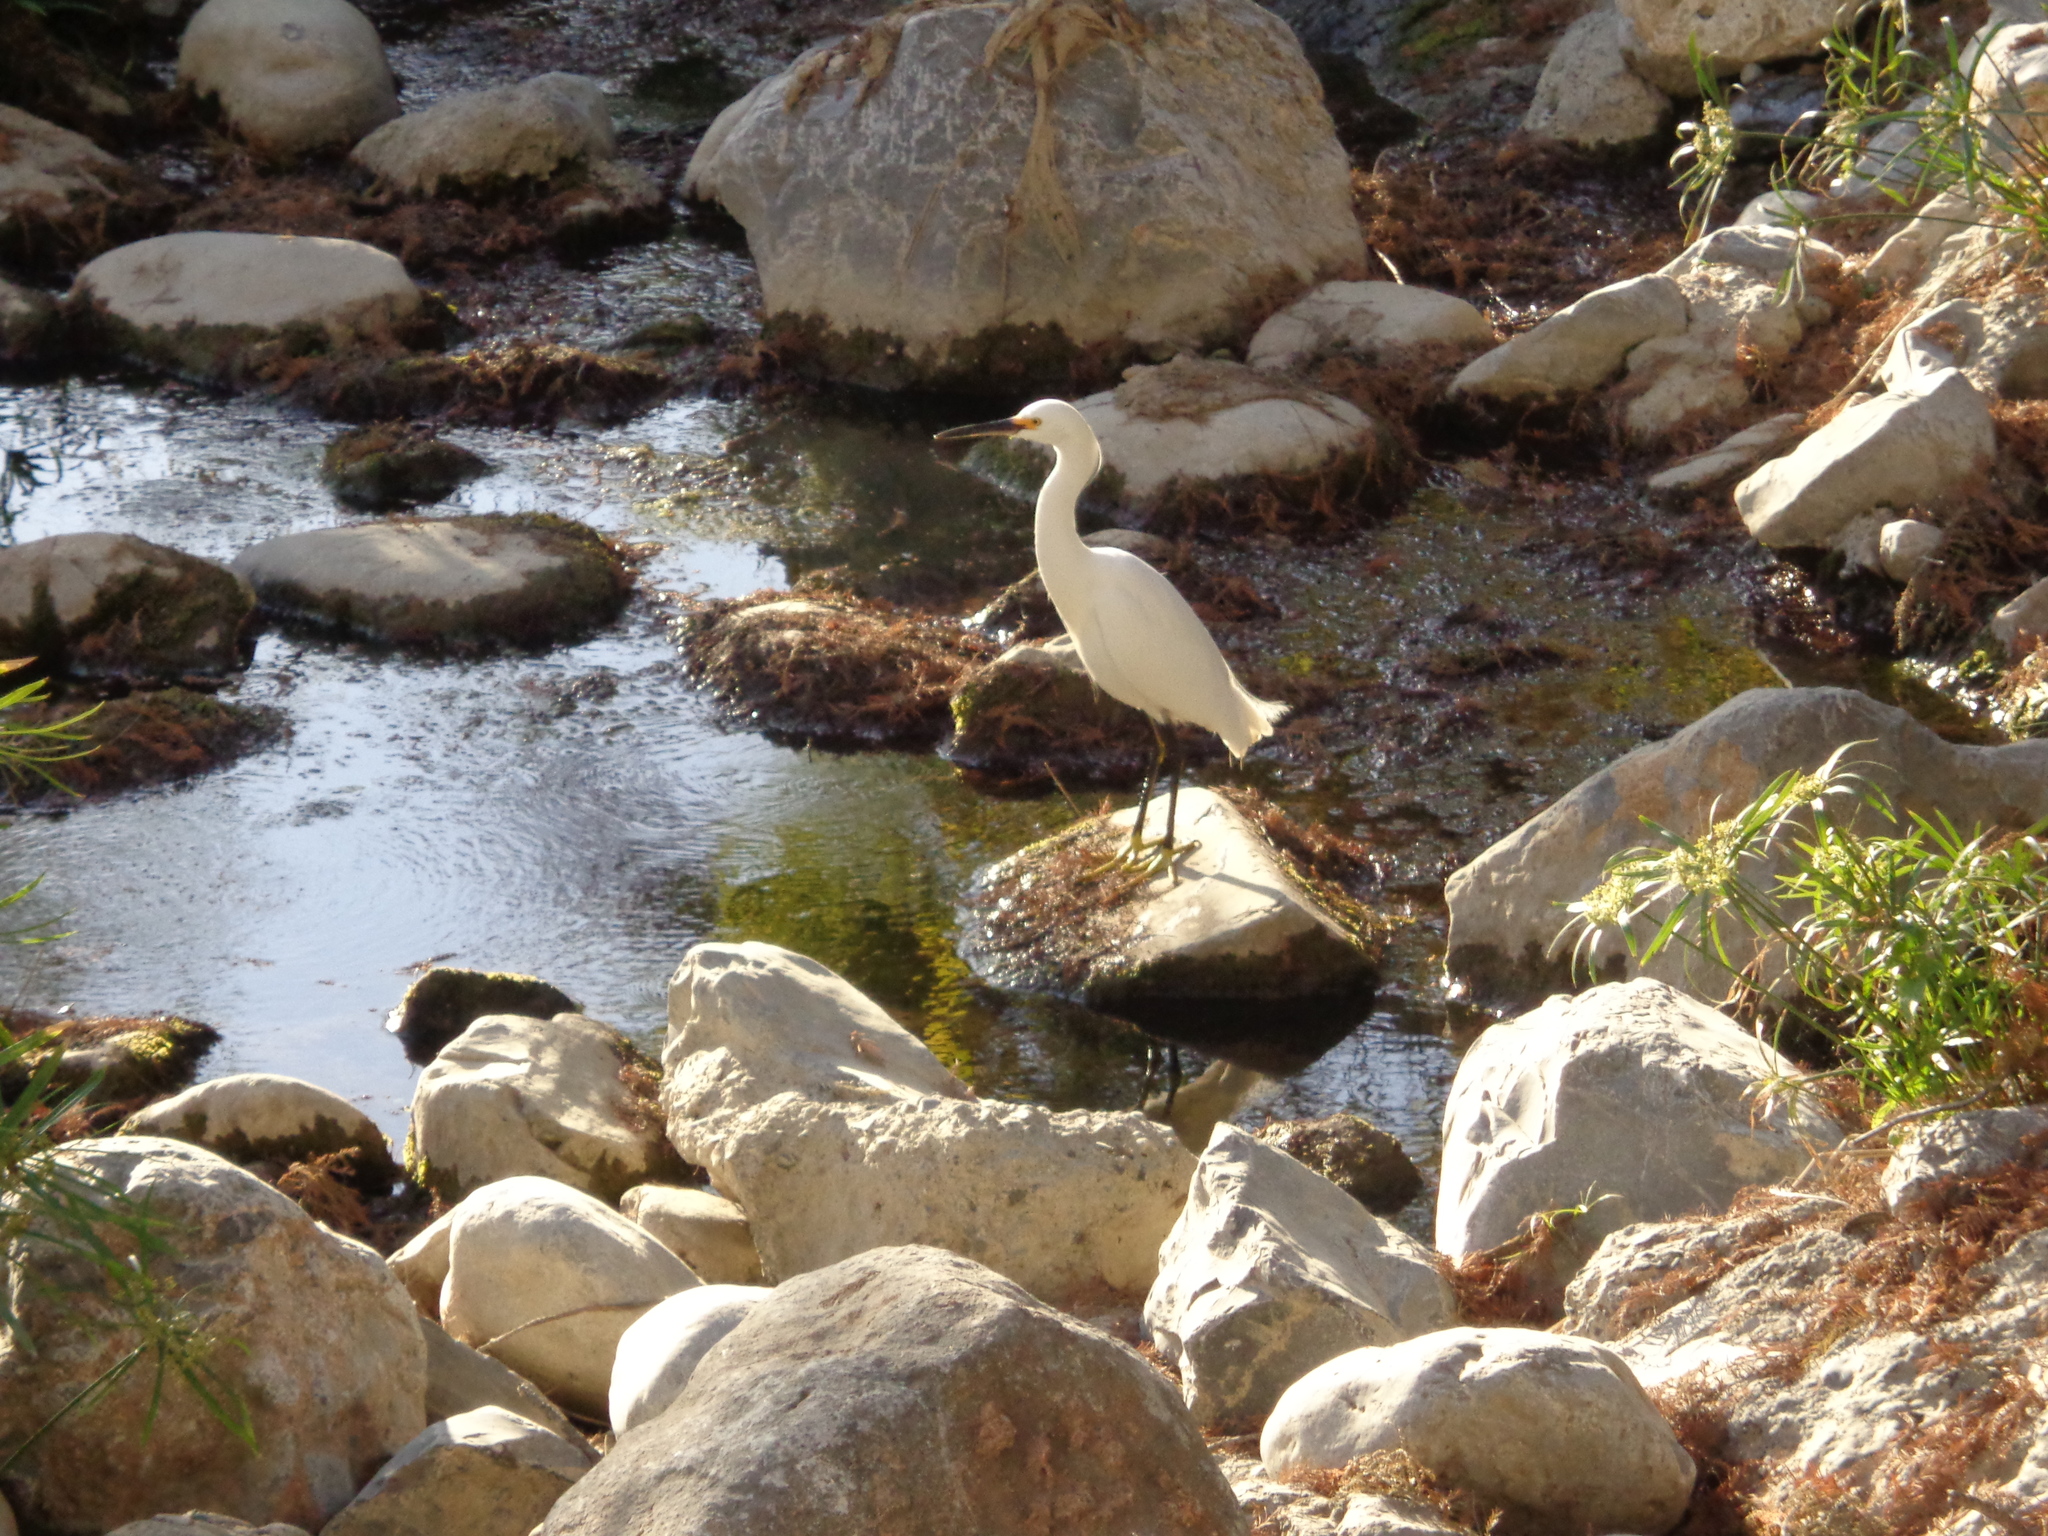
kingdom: Animalia
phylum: Chordata
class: Aves
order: Pelecaniformes
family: Ardeidae
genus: Egretta
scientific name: Egretta thula
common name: Snowy egret
